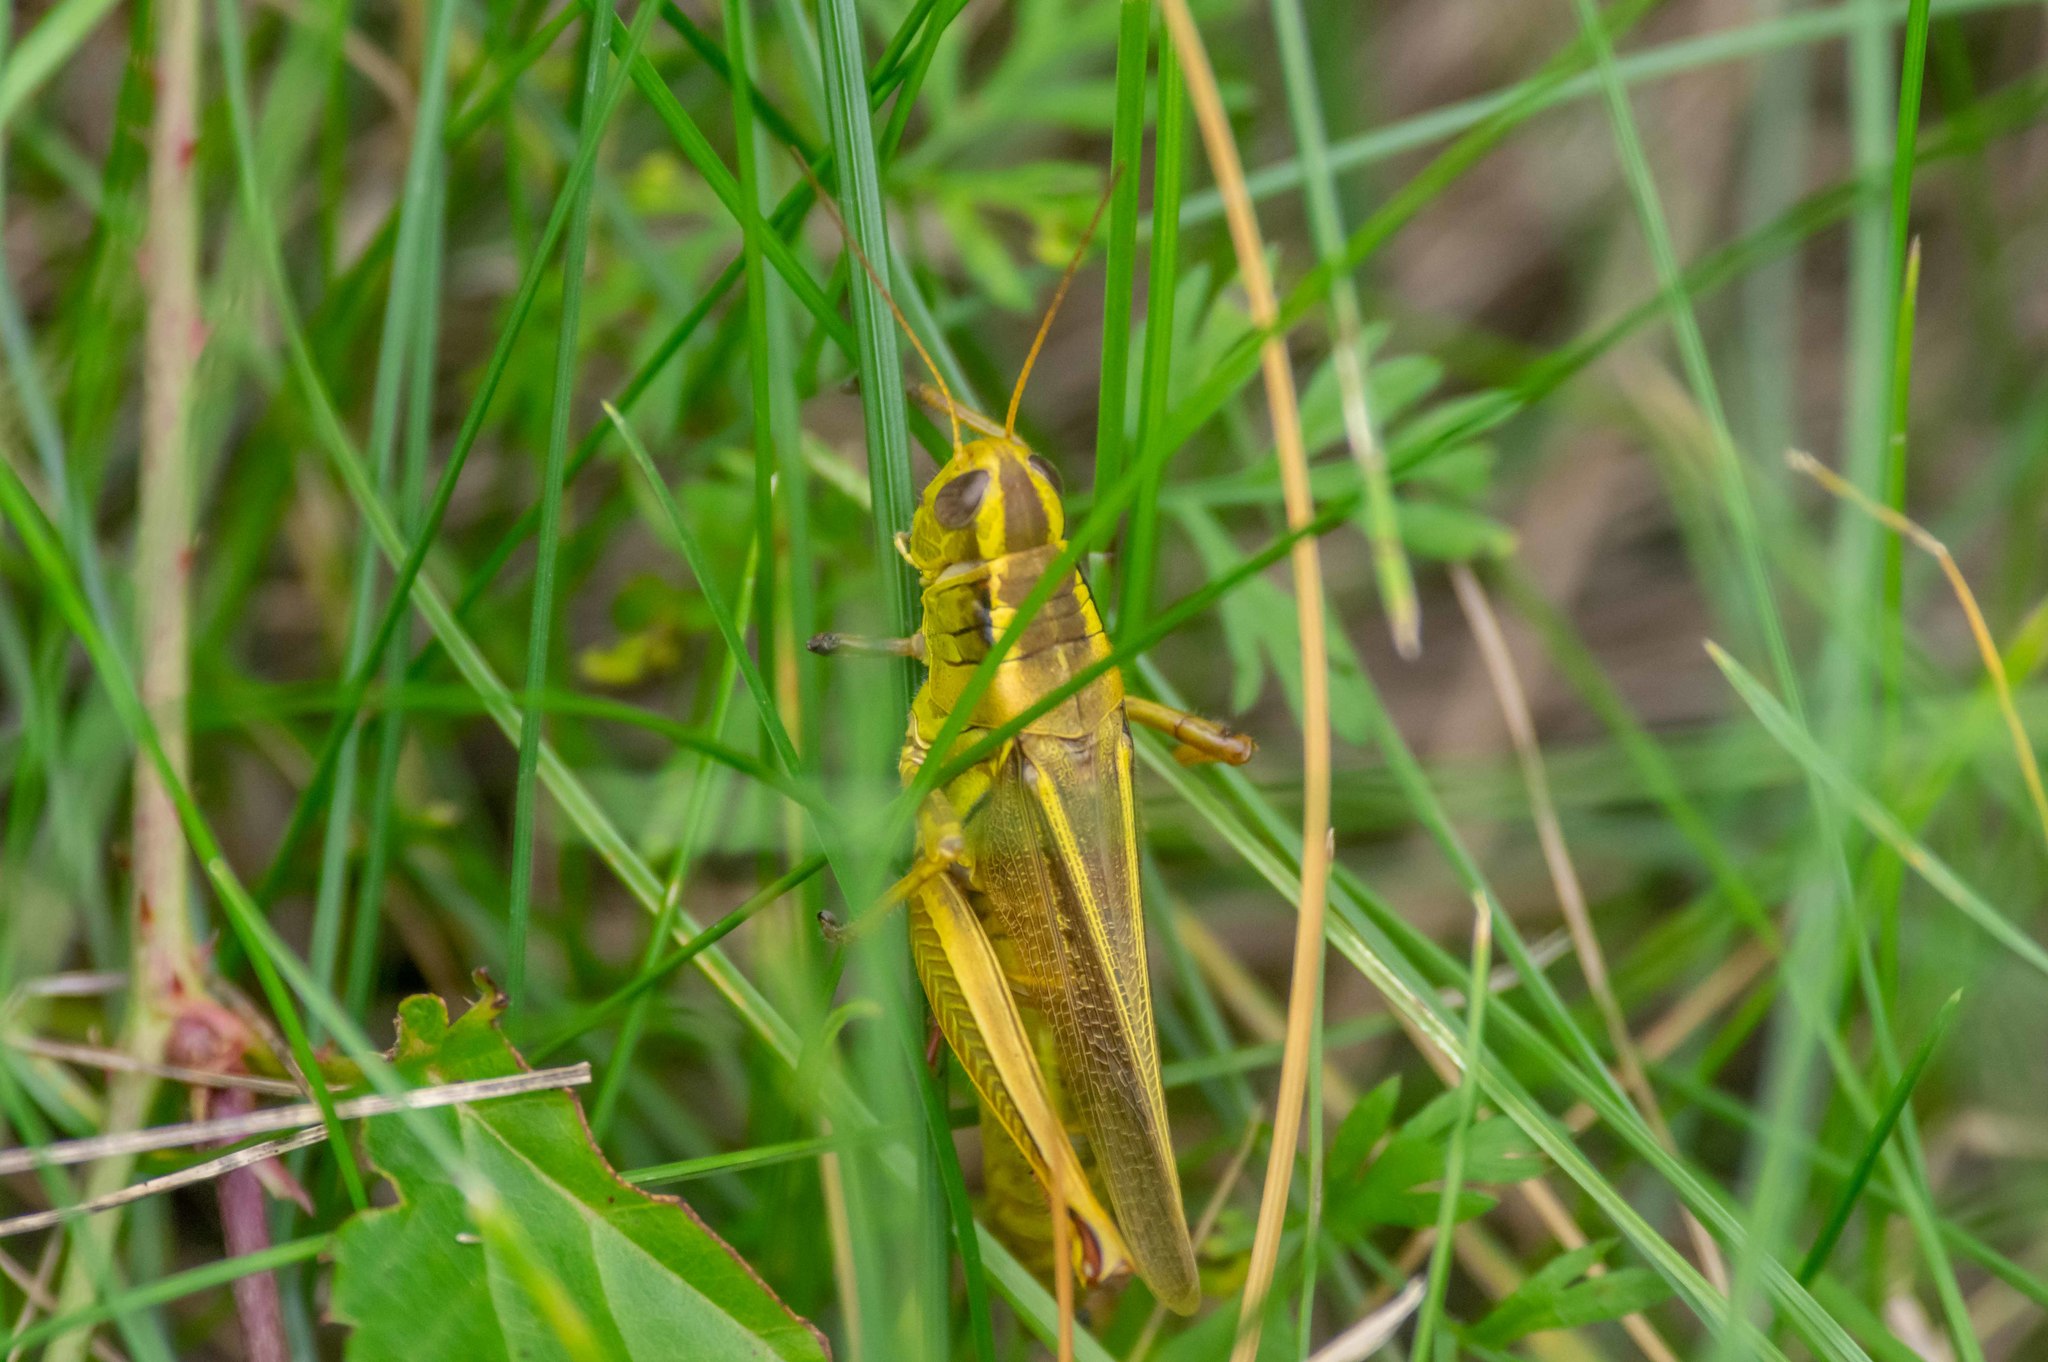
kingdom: Animalia
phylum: Arthropoda
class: Insecta
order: Orthoptera
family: Acrididae
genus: Melanoplus
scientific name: Melanoplus bivittatus
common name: Two-striped grasshopper
